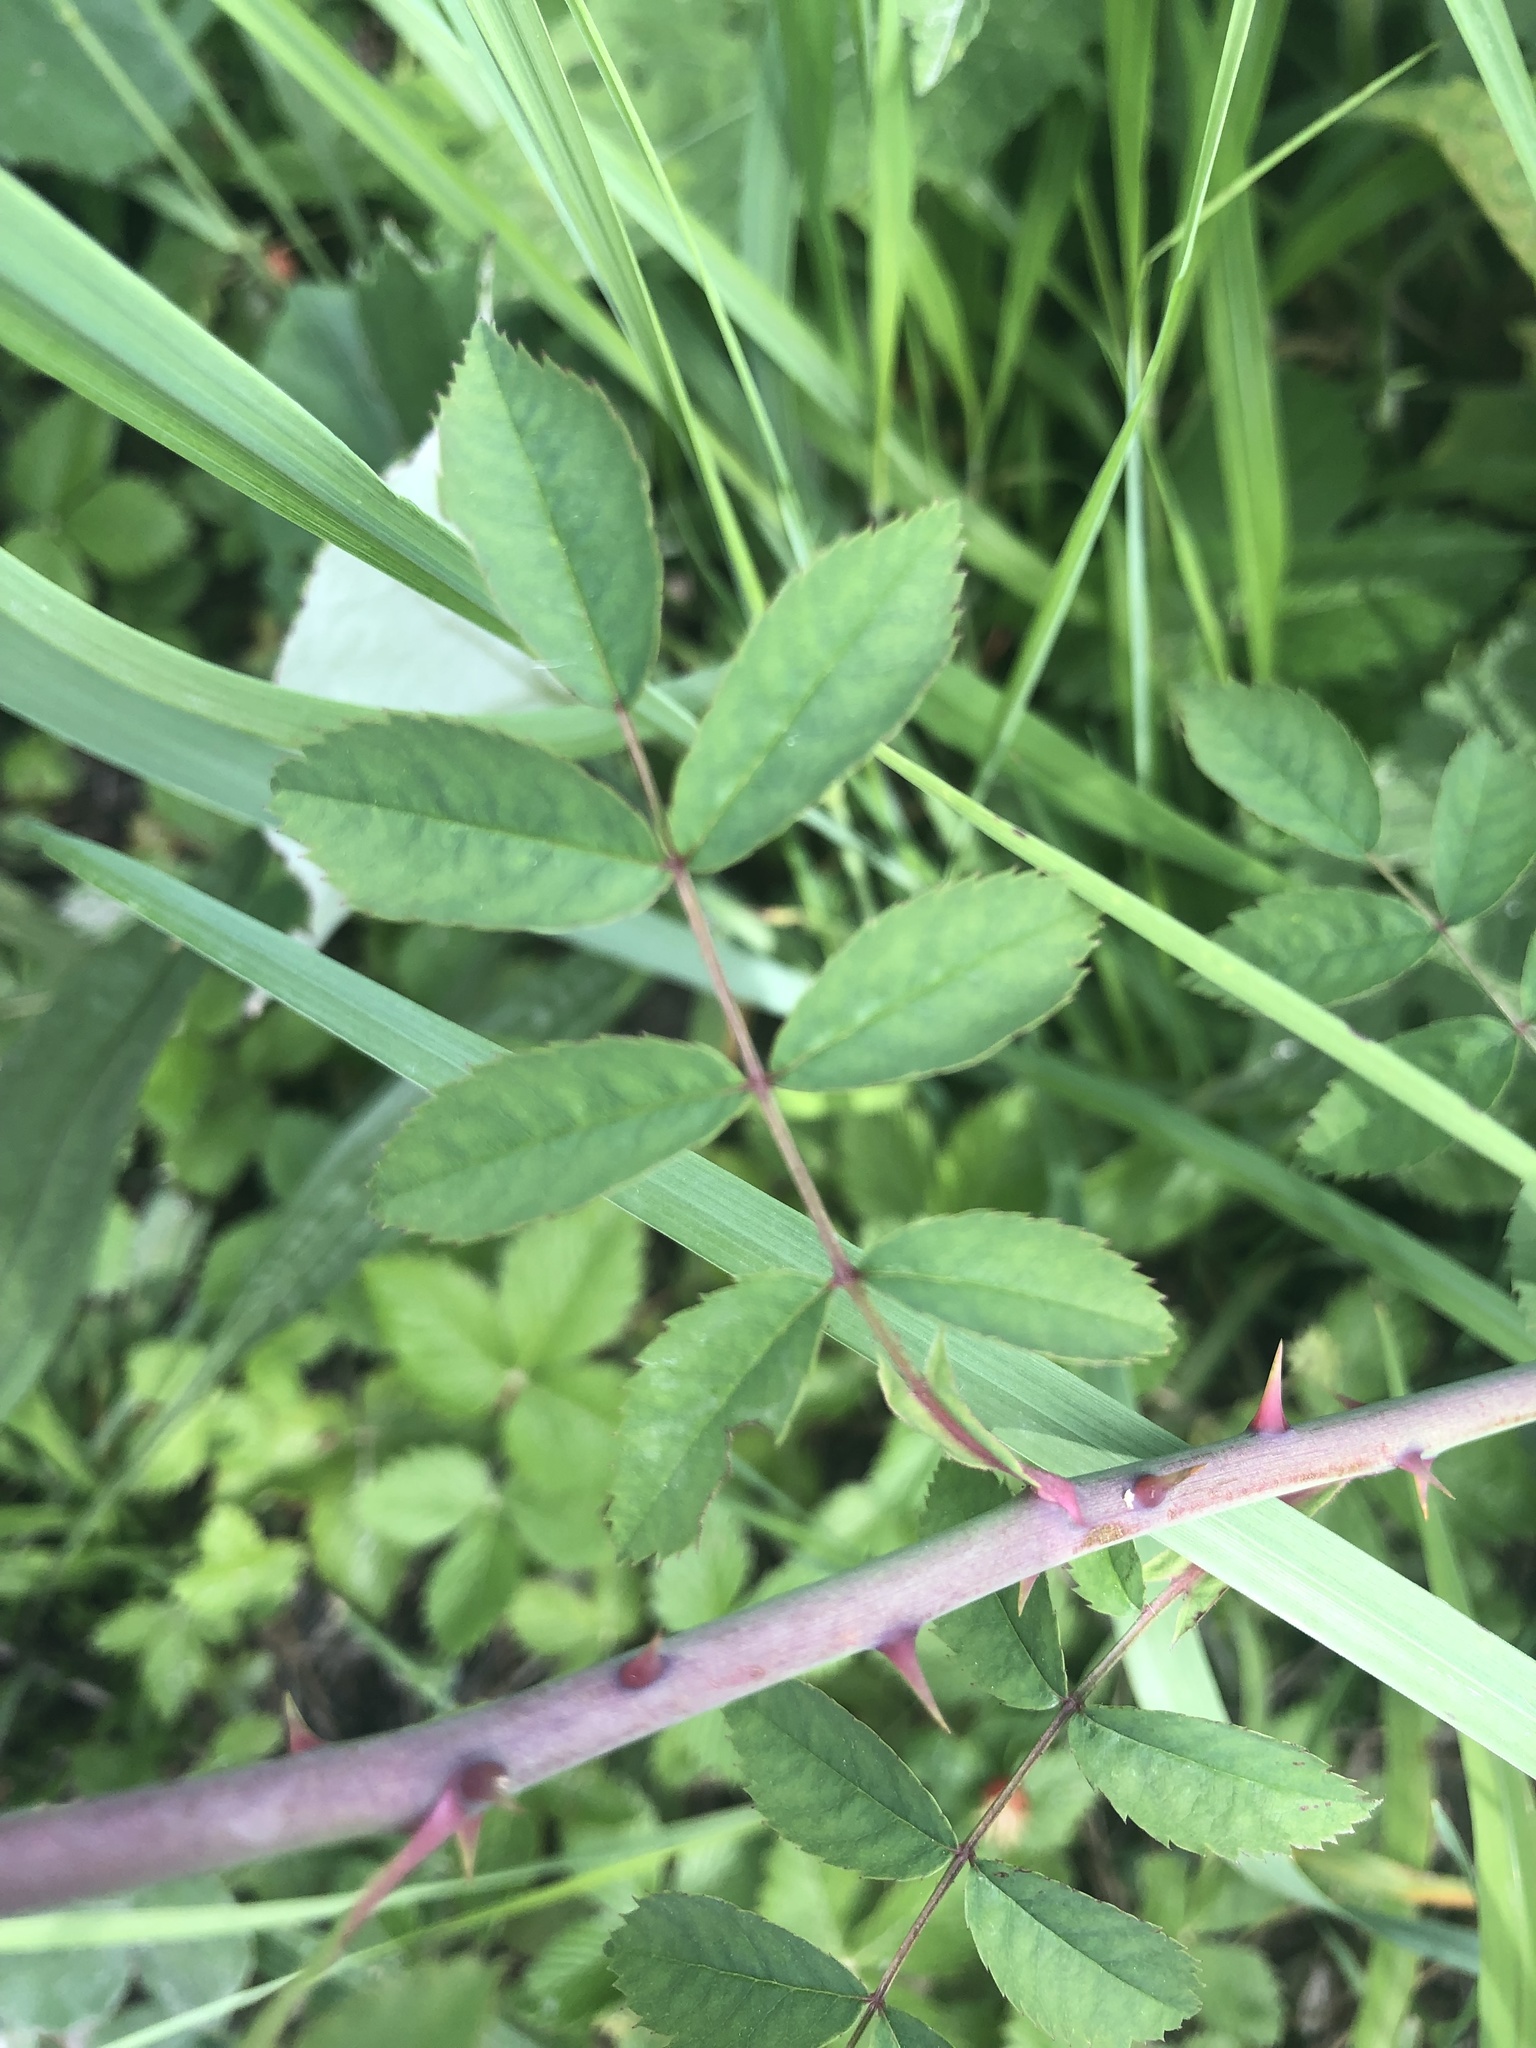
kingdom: Plantae
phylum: Tracheophyta
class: Magnoliopsida
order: Rosales
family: Rosaceae
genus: Rosa
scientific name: Rosa canina
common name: Dog rose
